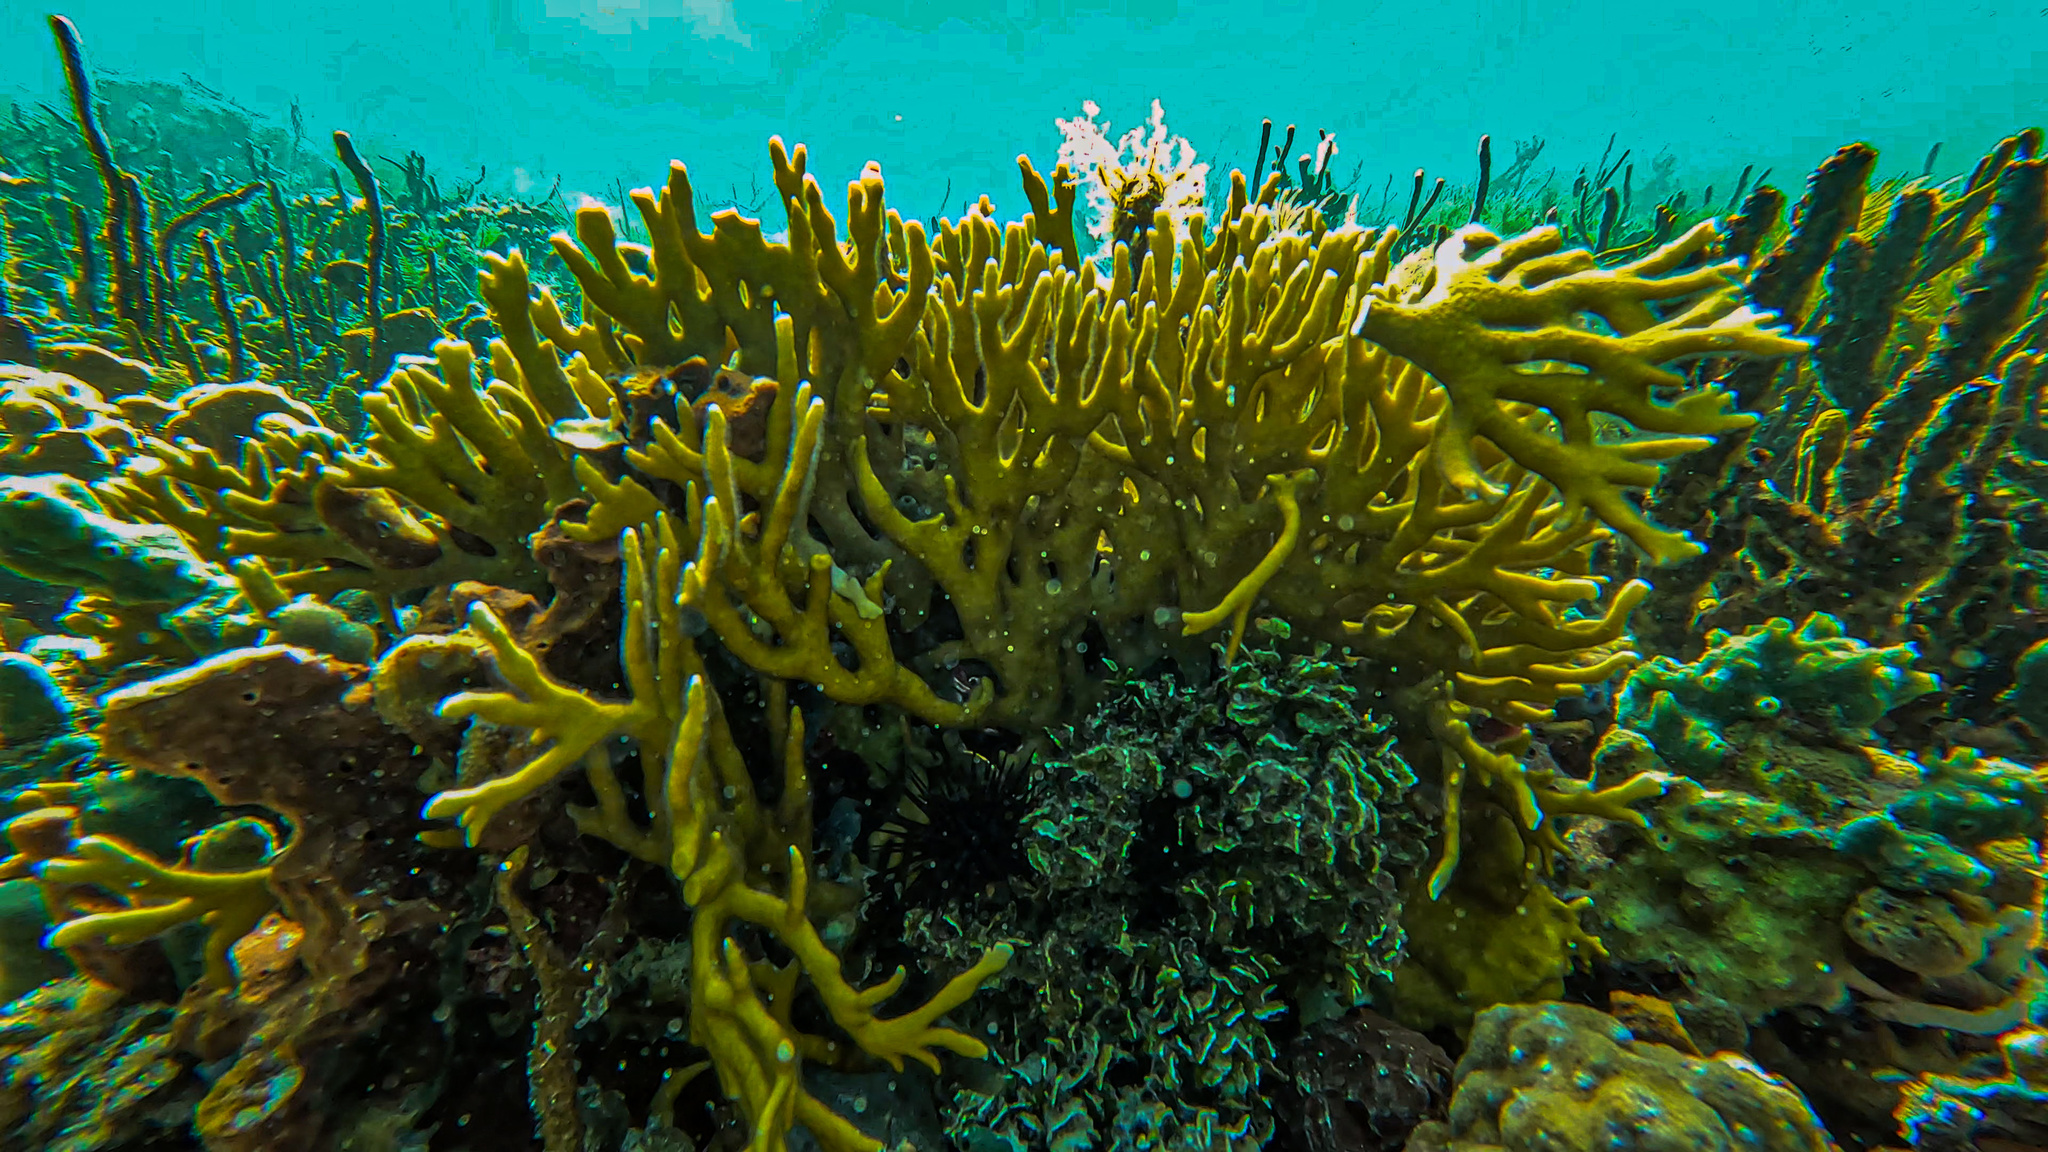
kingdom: Animalia
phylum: Cnidaria
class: Hydrozoa
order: Anthoathecata
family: Milleporidae
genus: Millepora
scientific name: Millepora alcicornis
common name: Branching fire coral
